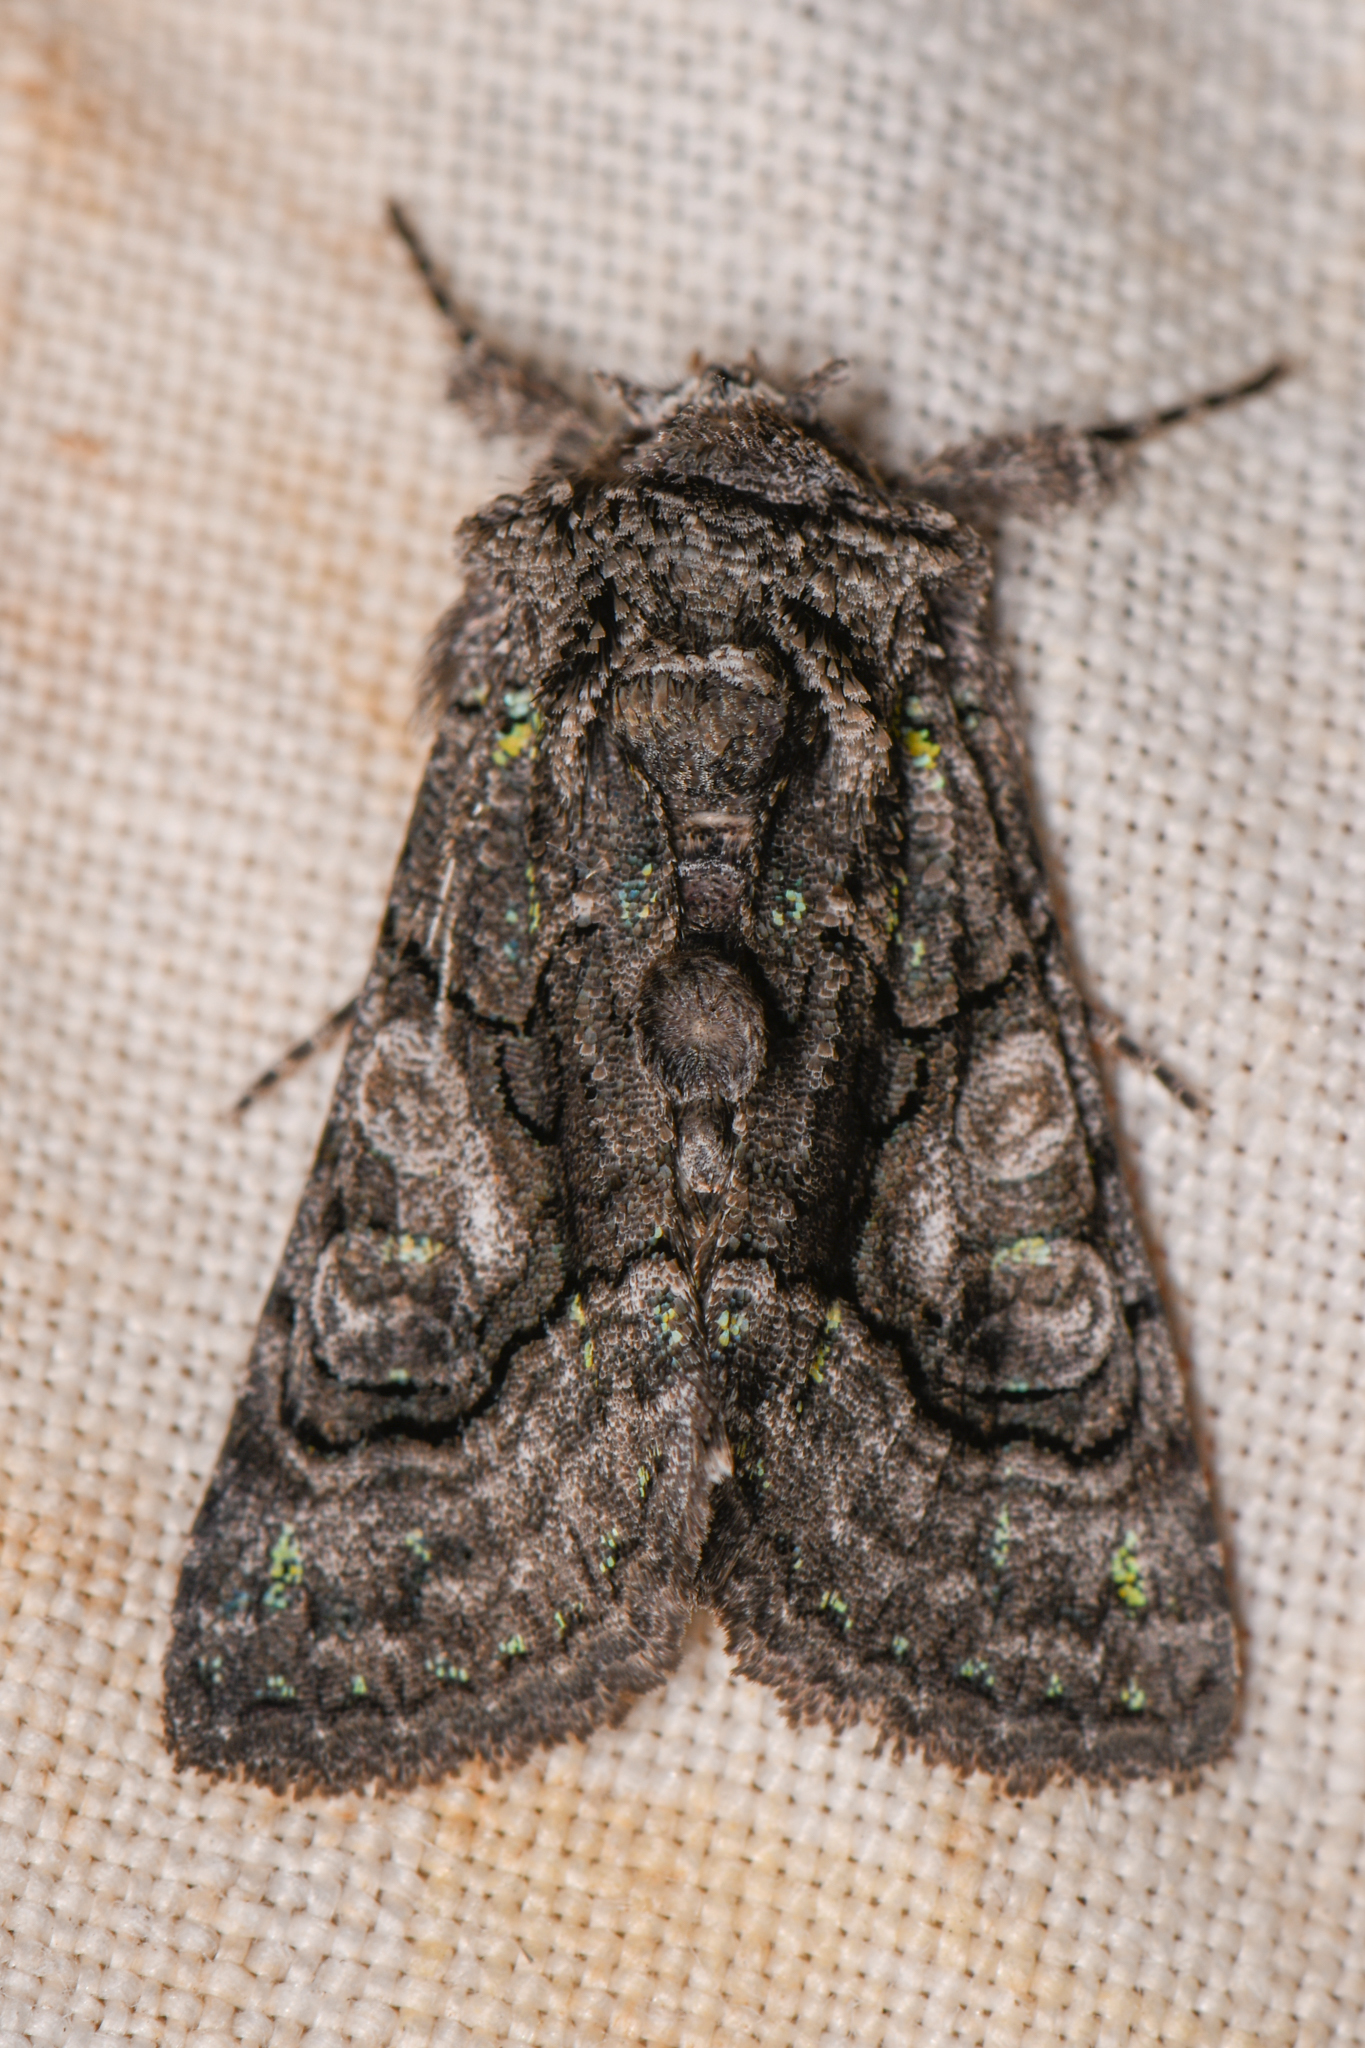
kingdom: Animalia
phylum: Arthropoda
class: Insecta
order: Lepidoptera
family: Noctuidae
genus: Behrensia
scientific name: Behrensia conchiformis
